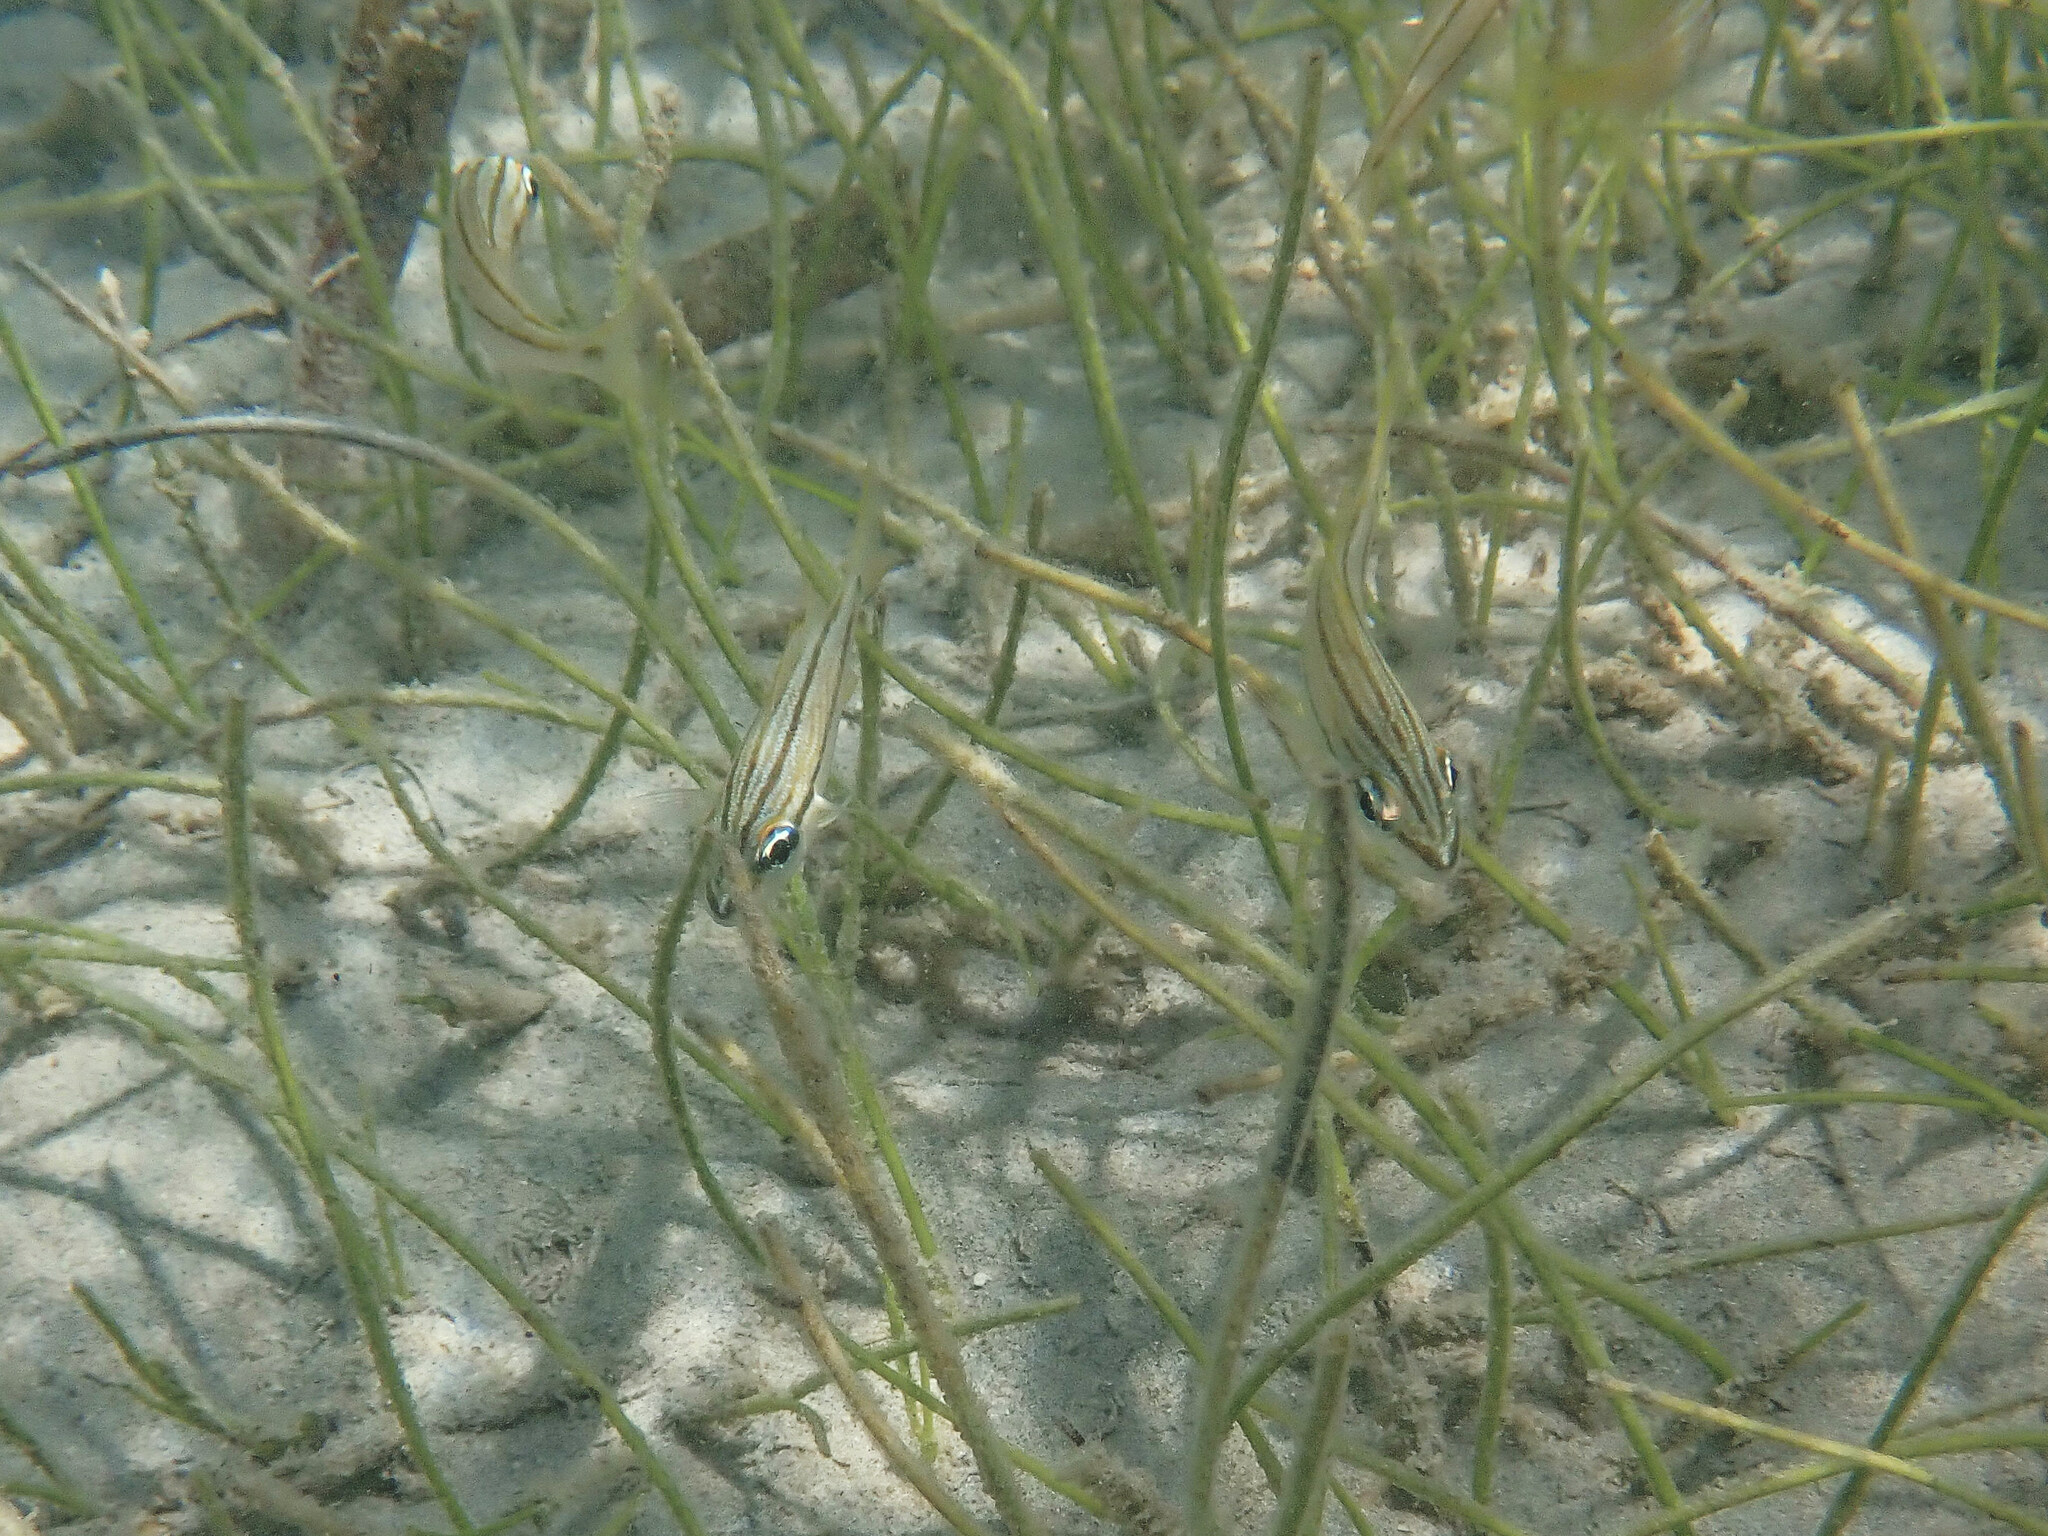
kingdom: Animalia
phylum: Chordata
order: Perciformes
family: Haemulidae
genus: Haemulon
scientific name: Haemulon flavolineatum
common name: French grunt
